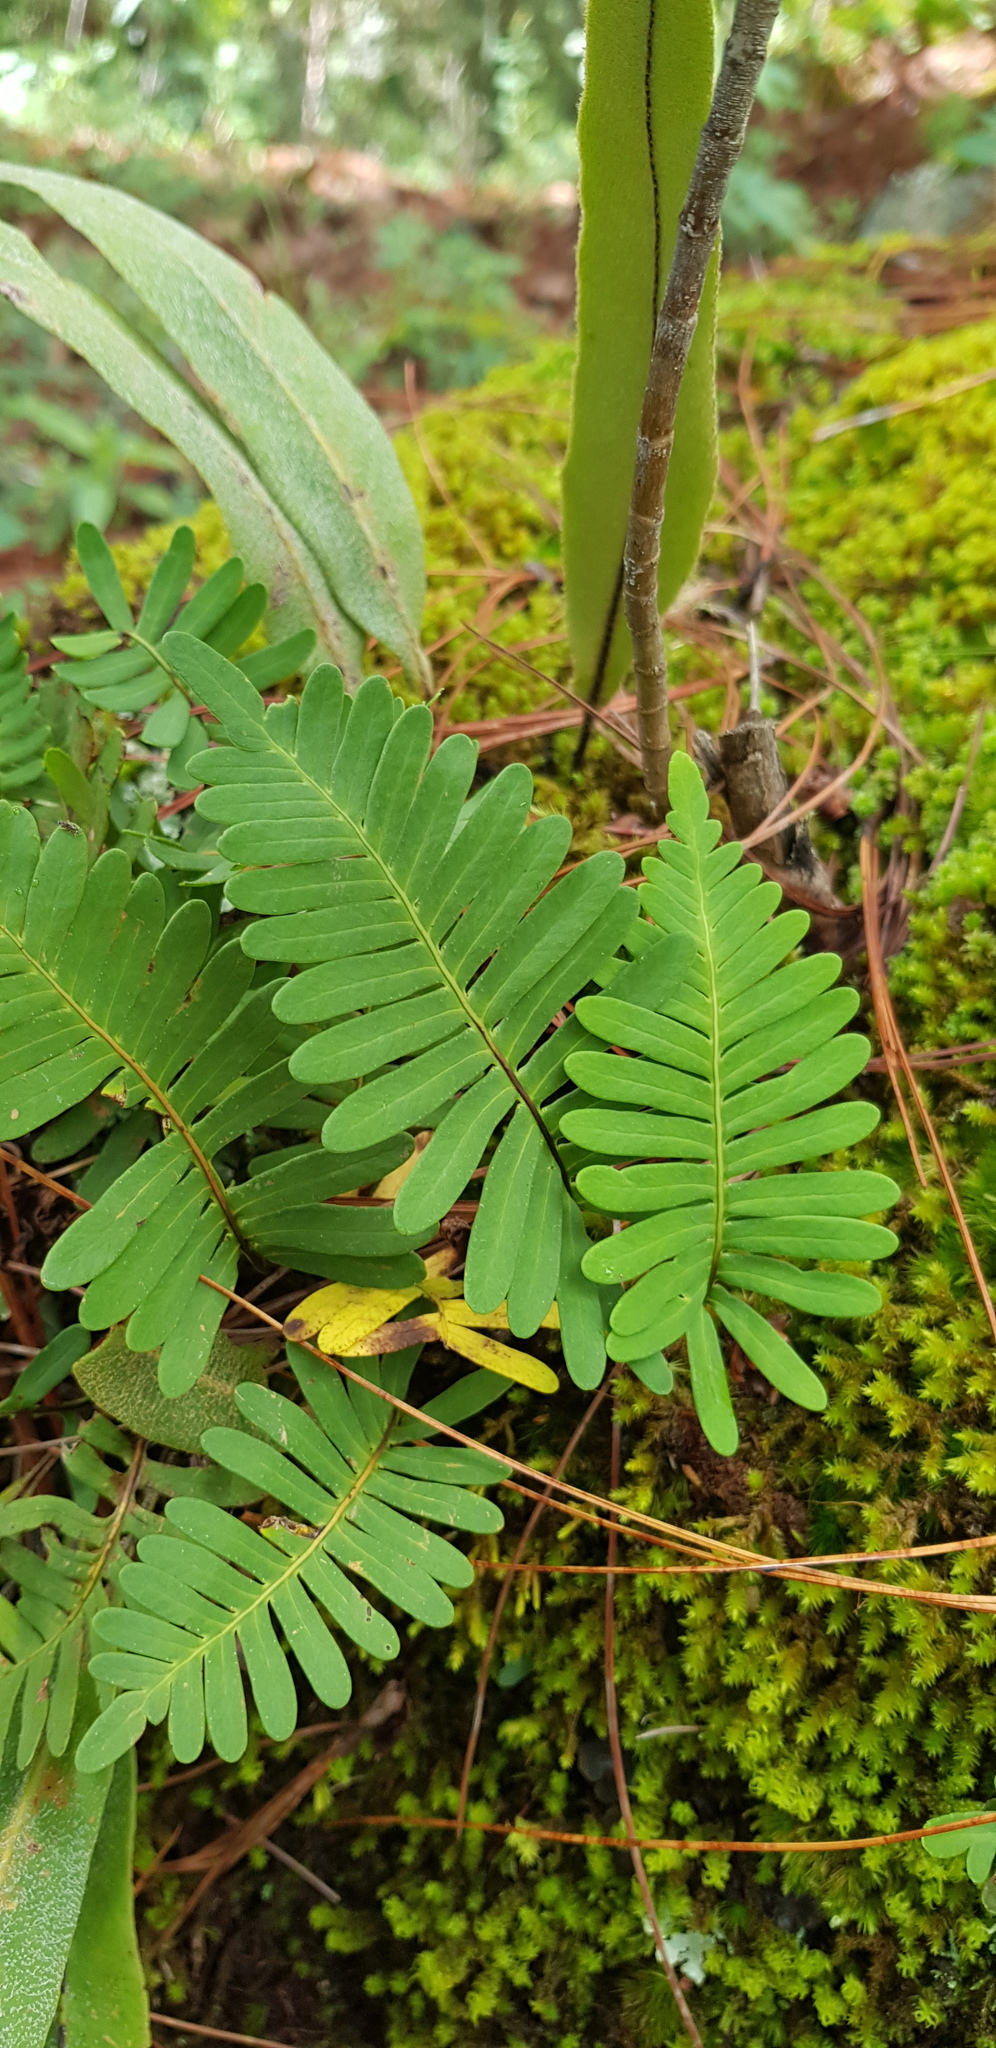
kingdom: Plantae
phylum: Tracheophyta
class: Polypodiopsida
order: Polypodiales
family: Polypodiaceae
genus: Pleopeltis
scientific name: Pleopeltis polypodioides
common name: Resurrection fern
